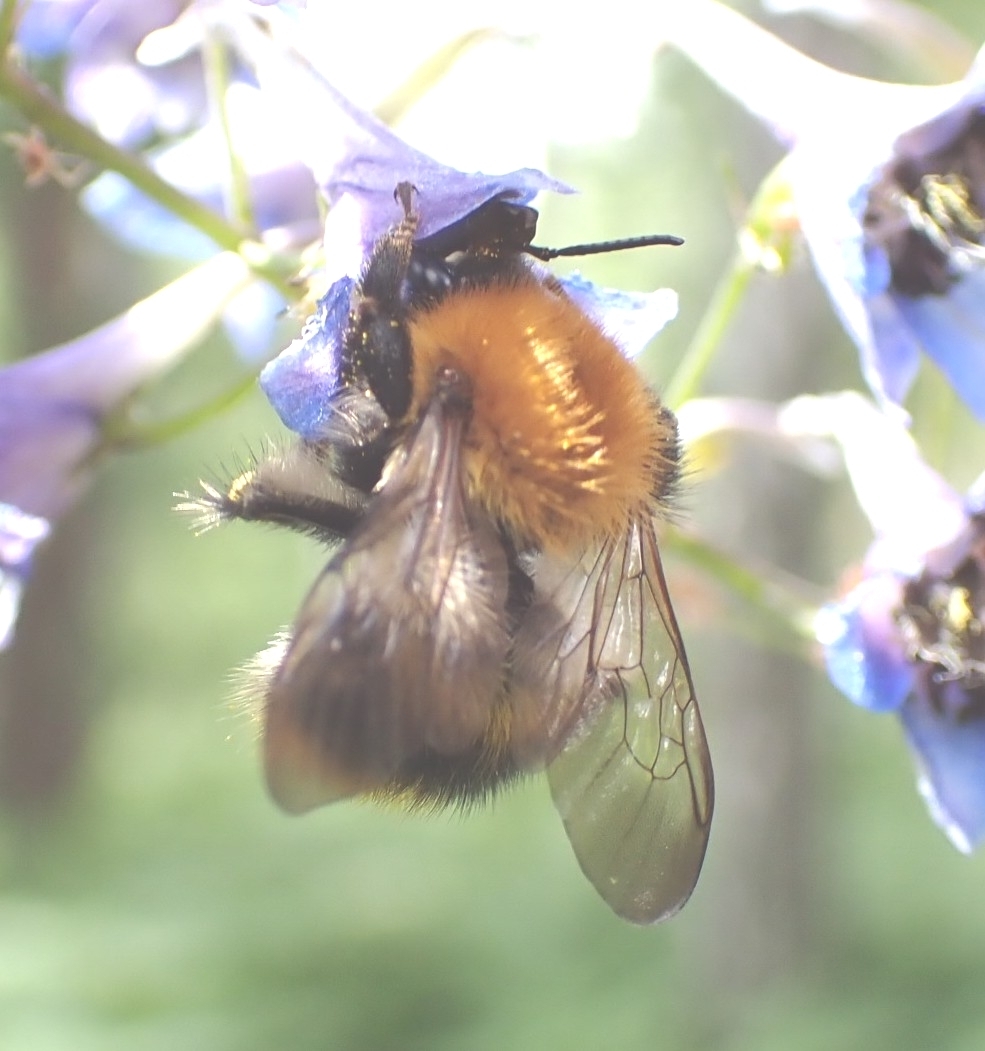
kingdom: Animalia
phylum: Arthropoda
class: Insecta
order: Hymenoptera
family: Apidae
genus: Bombus
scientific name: Bombus pascuorum
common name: Common carder bee
